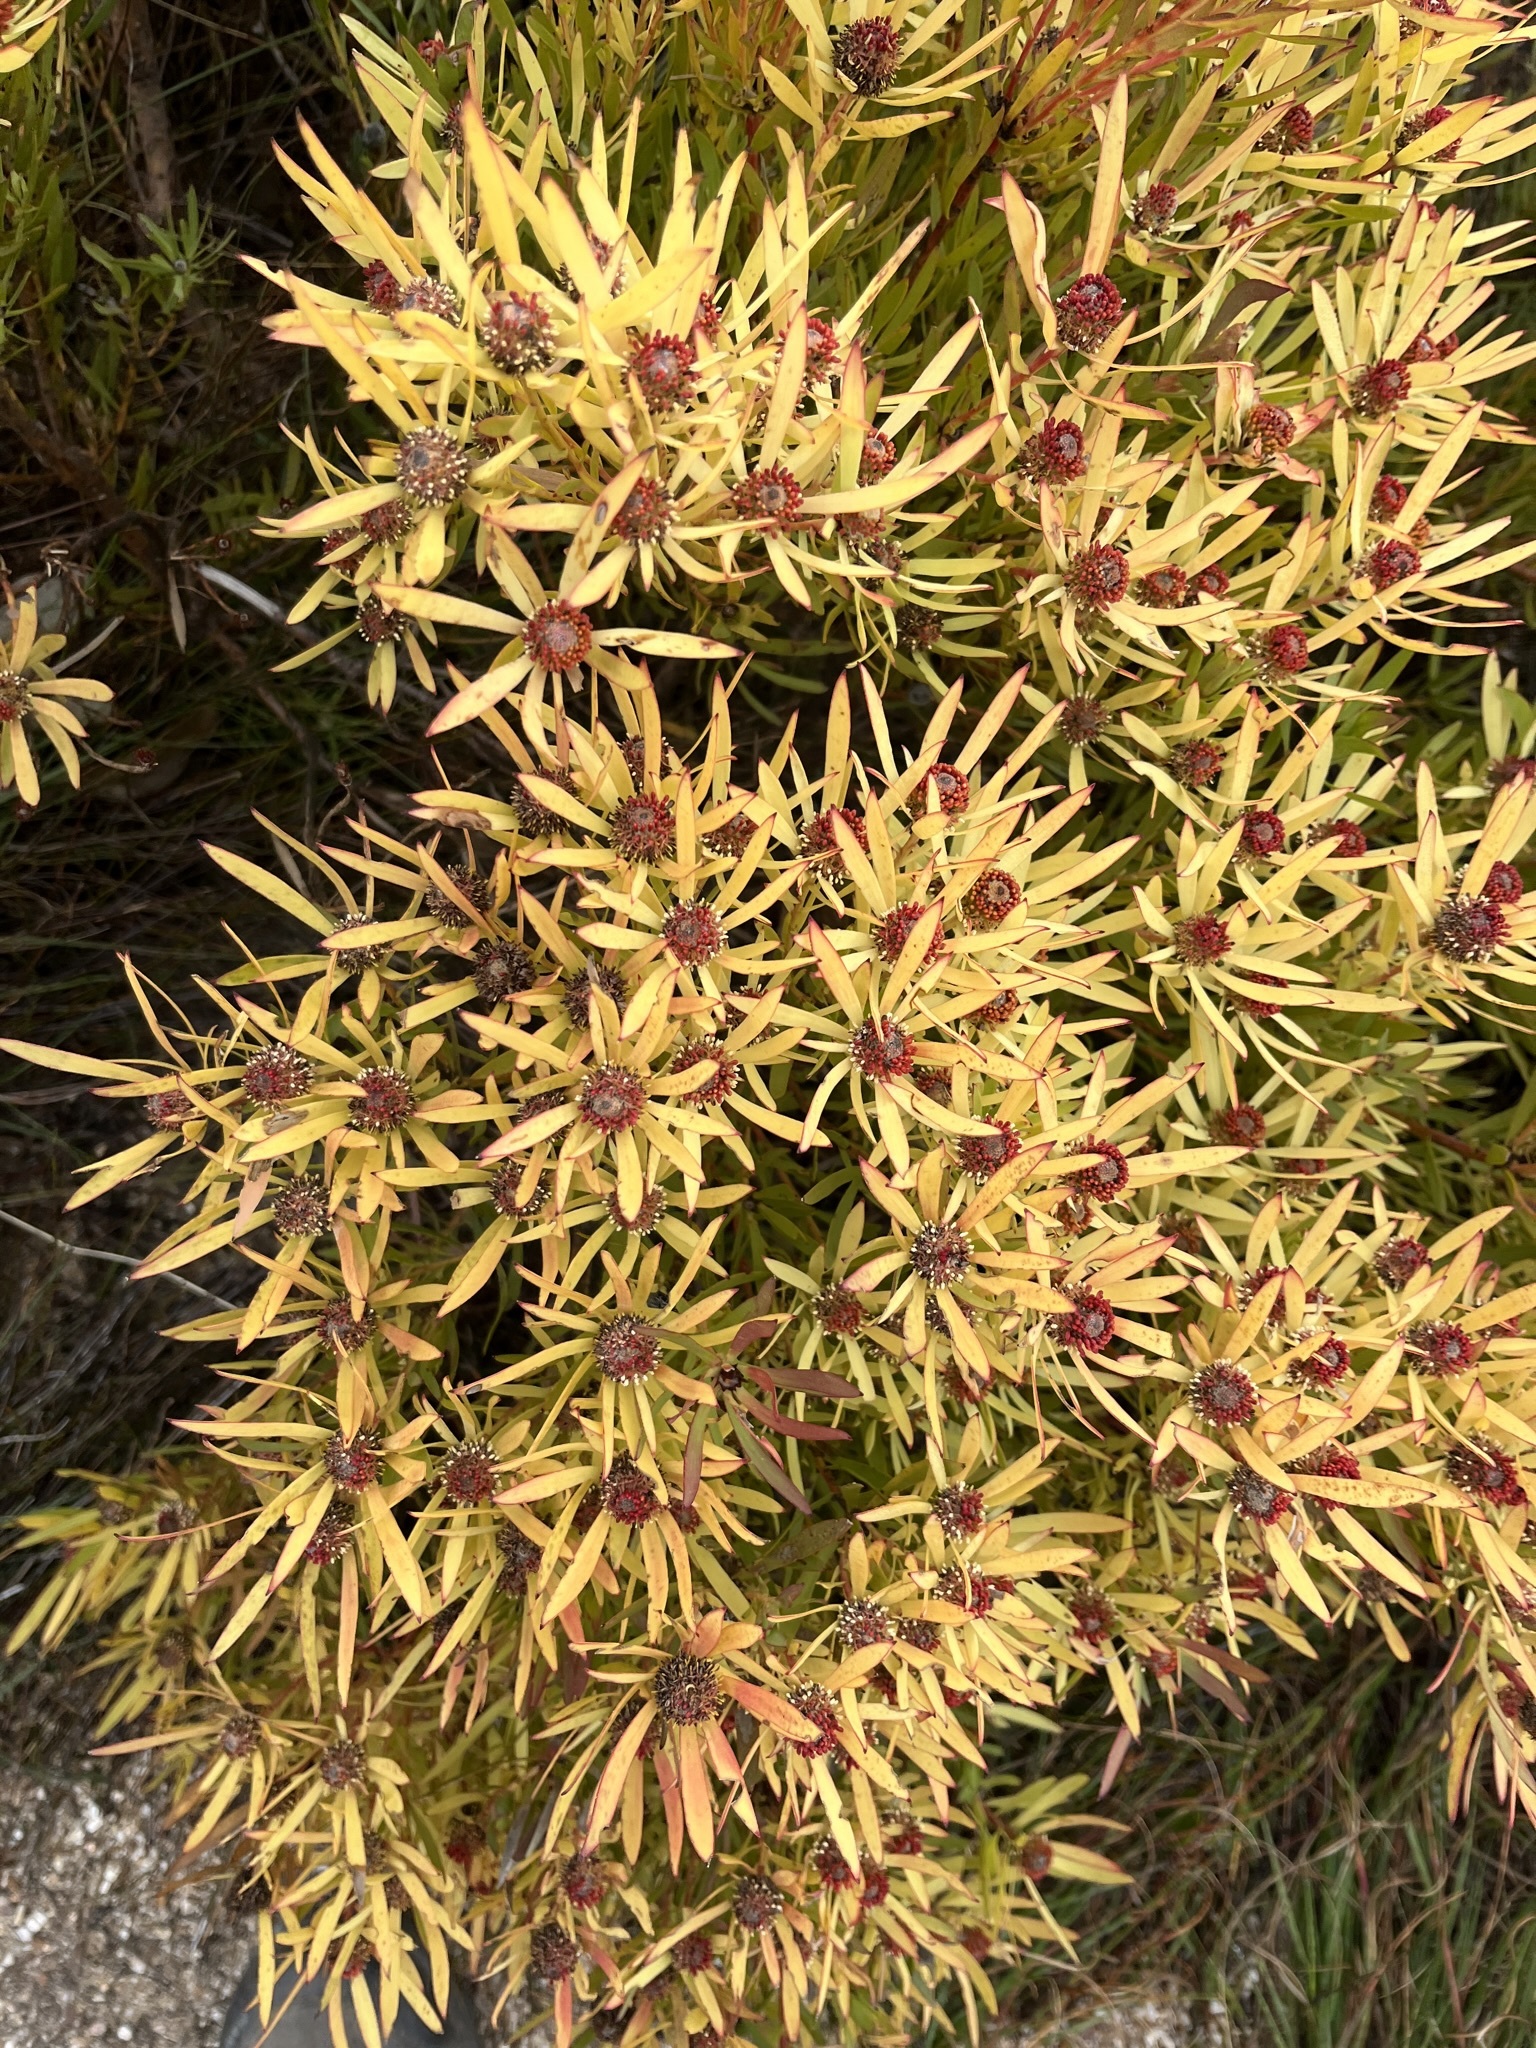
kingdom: Plantae
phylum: Tracheophyta
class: Magnoliopsida
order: Proteales
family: Proteaceae
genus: Leucadendron
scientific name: Leucadendron salignum
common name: Common sunshine conebush
